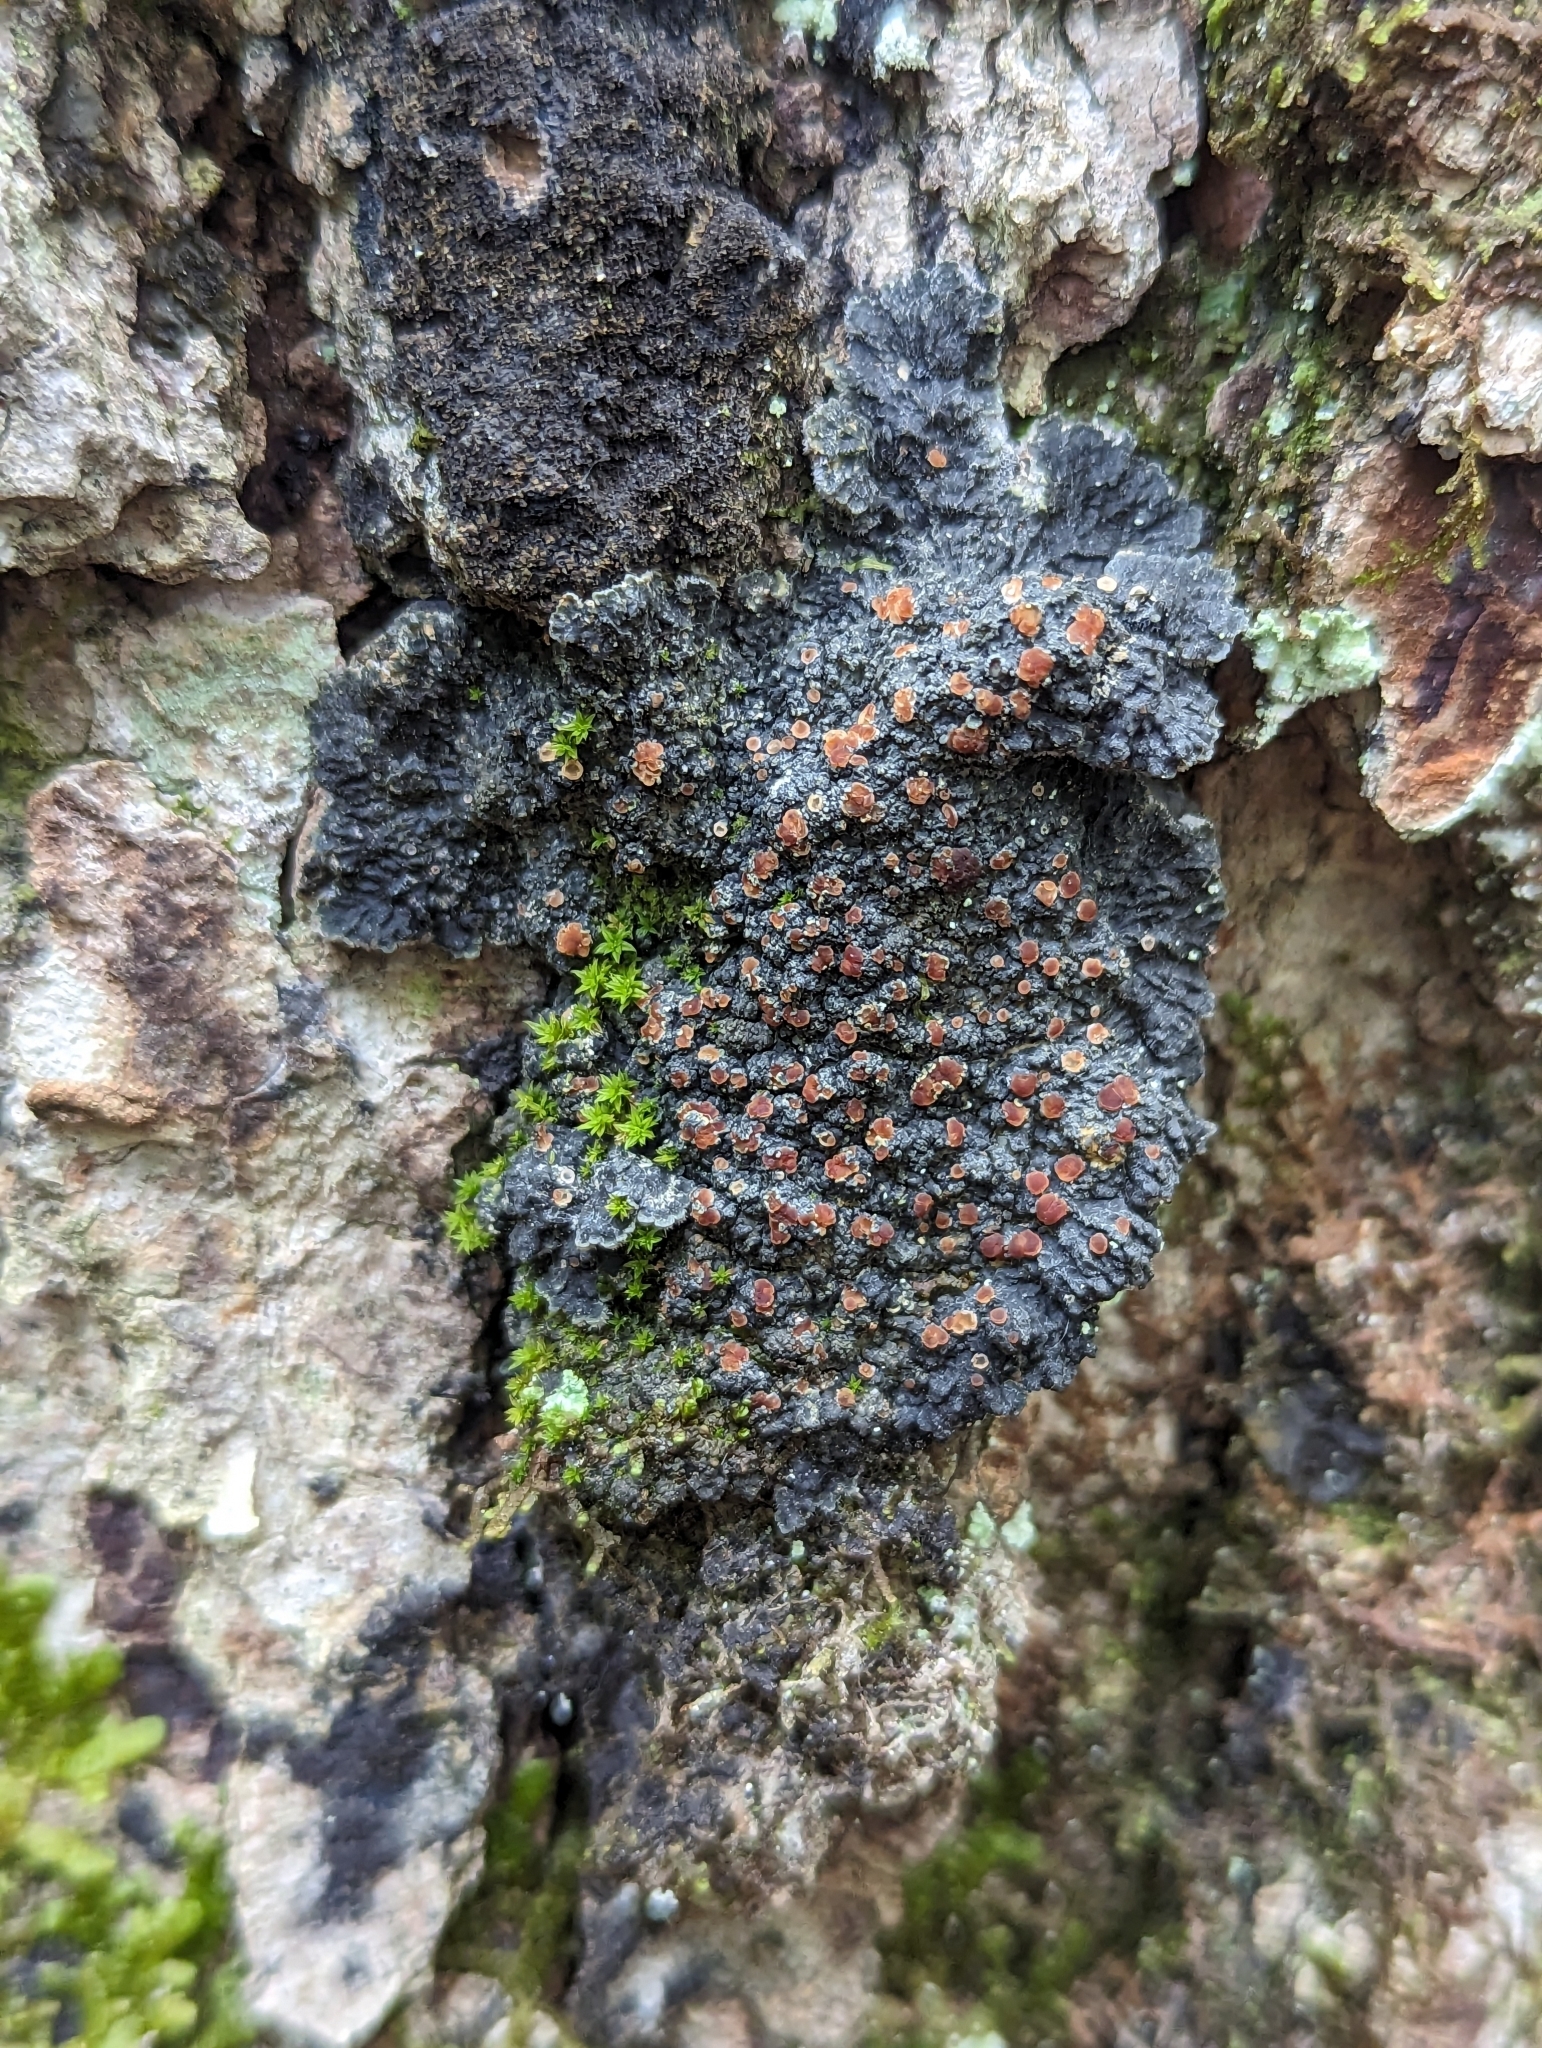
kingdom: Fungi
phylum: Ascomycota
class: Lecanoromycetes
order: Peltigerales
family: Pannariaceae
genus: Pectenia
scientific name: Pectenia plumbea
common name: Bladder stalks
